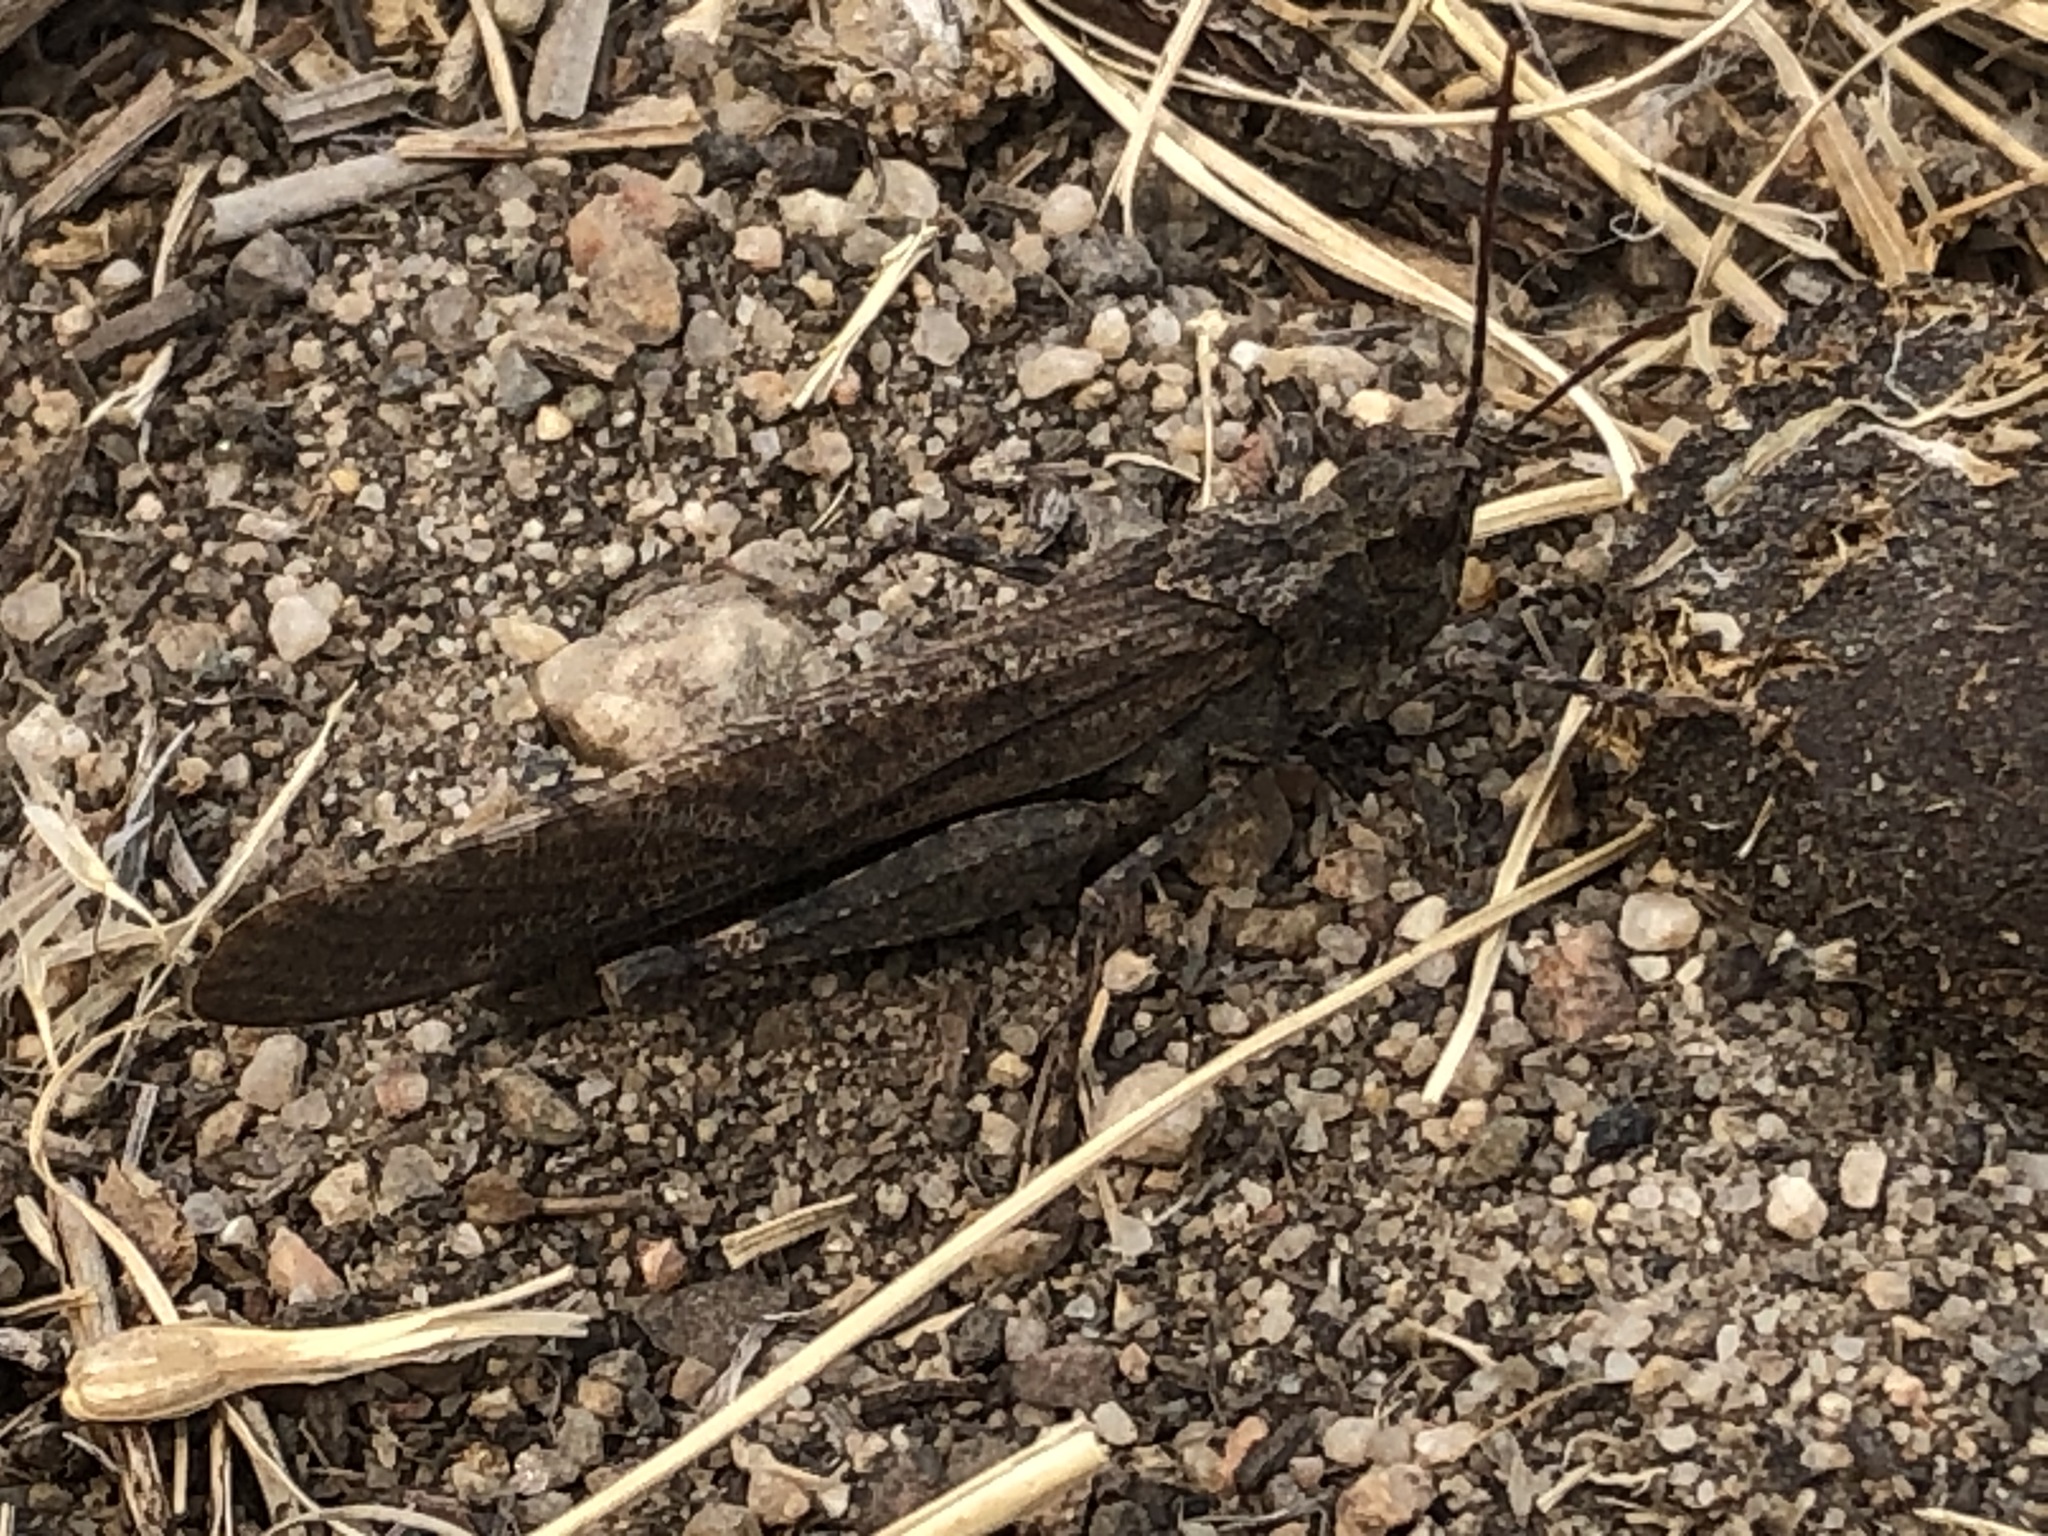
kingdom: Animalia
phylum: Arthropoda
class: Insecta
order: Orthoptera
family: Acrididae
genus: Trimerotropis
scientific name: Trimerotropis verruculata
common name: Crackling forest grasshopper
